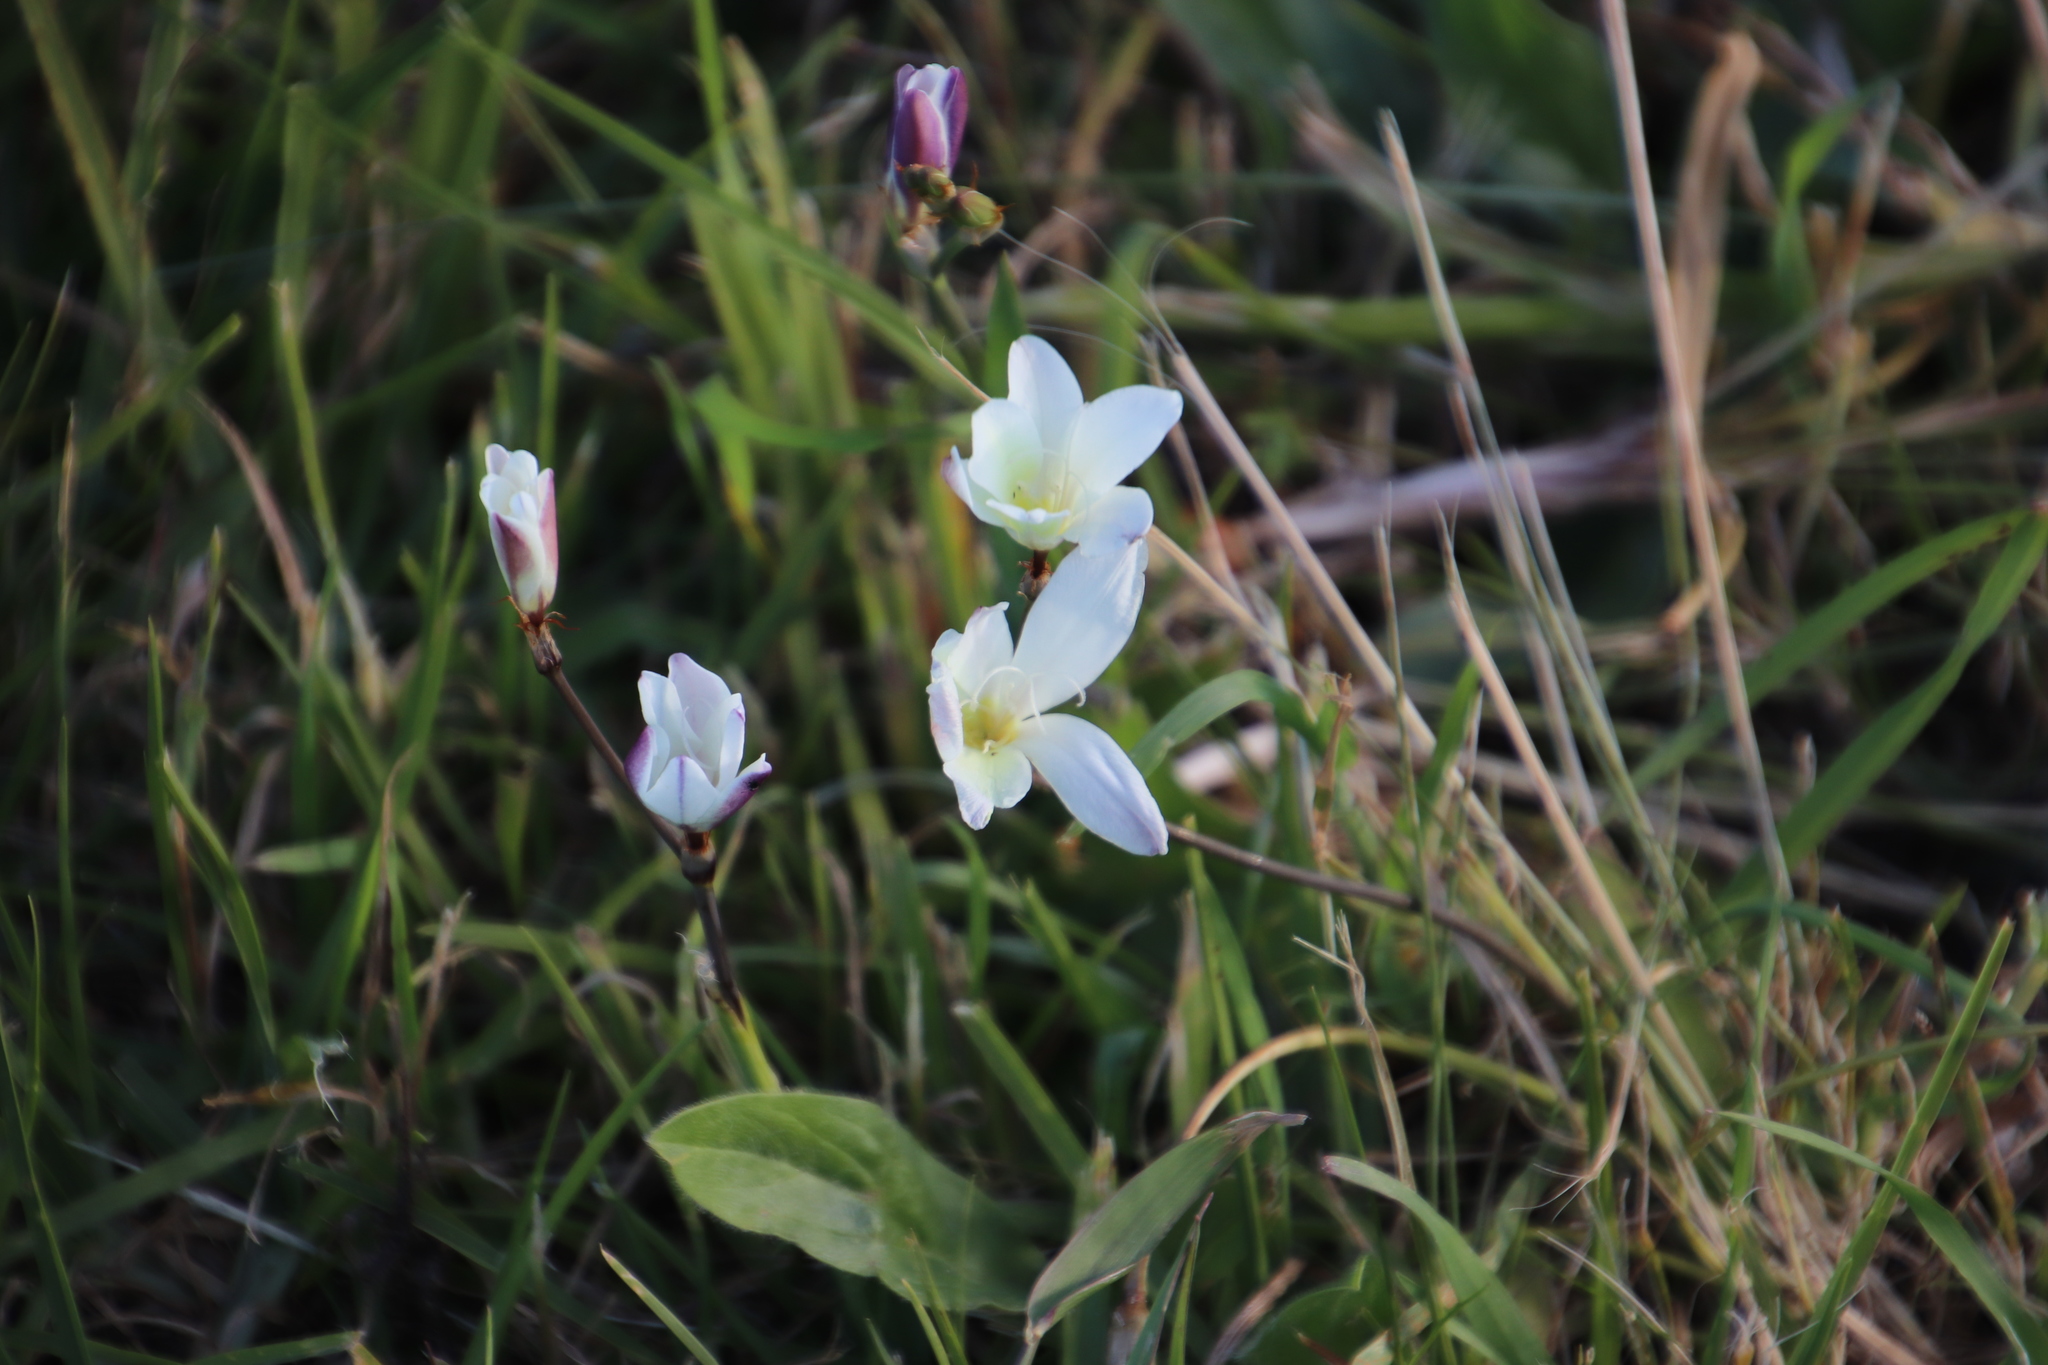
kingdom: Plantae
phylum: Tracheophyta
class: Liliopsida
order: Asparagales
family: Iridaceae
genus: Sparaxis
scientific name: Sparaxis bulbifera
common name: Harlequin-flower
